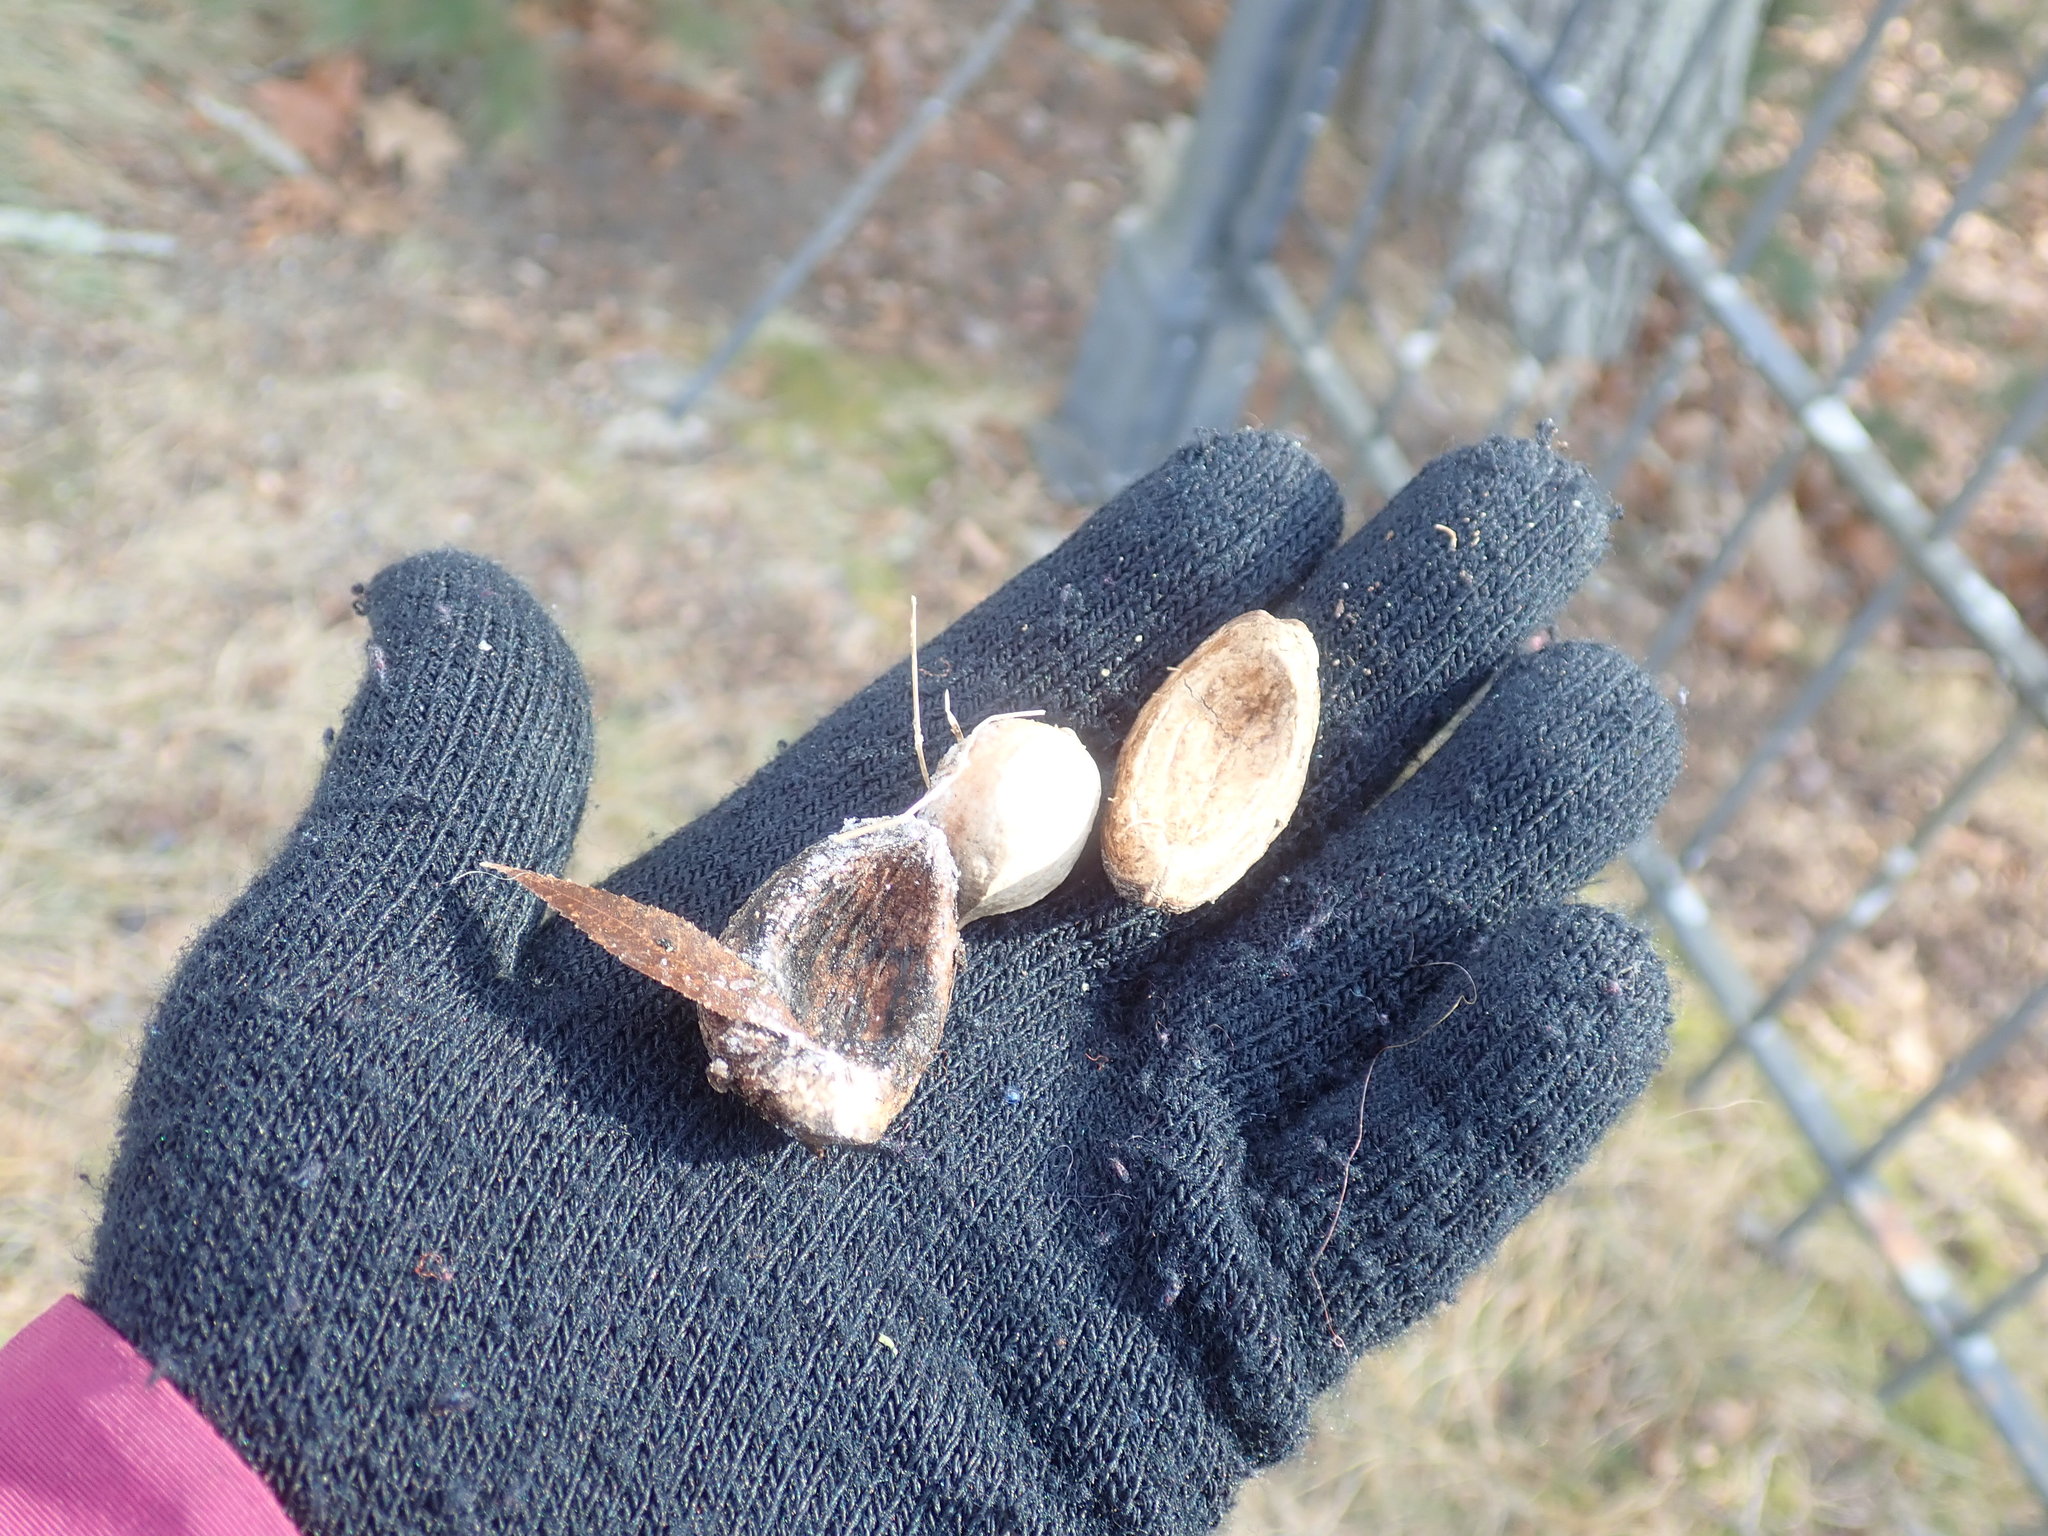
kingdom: Plantae
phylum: Tracheophyta
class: Magnoliopsida
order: Fagales
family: Juglandaceae
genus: Carya
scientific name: Carya ovata
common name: Shagbark hickory
